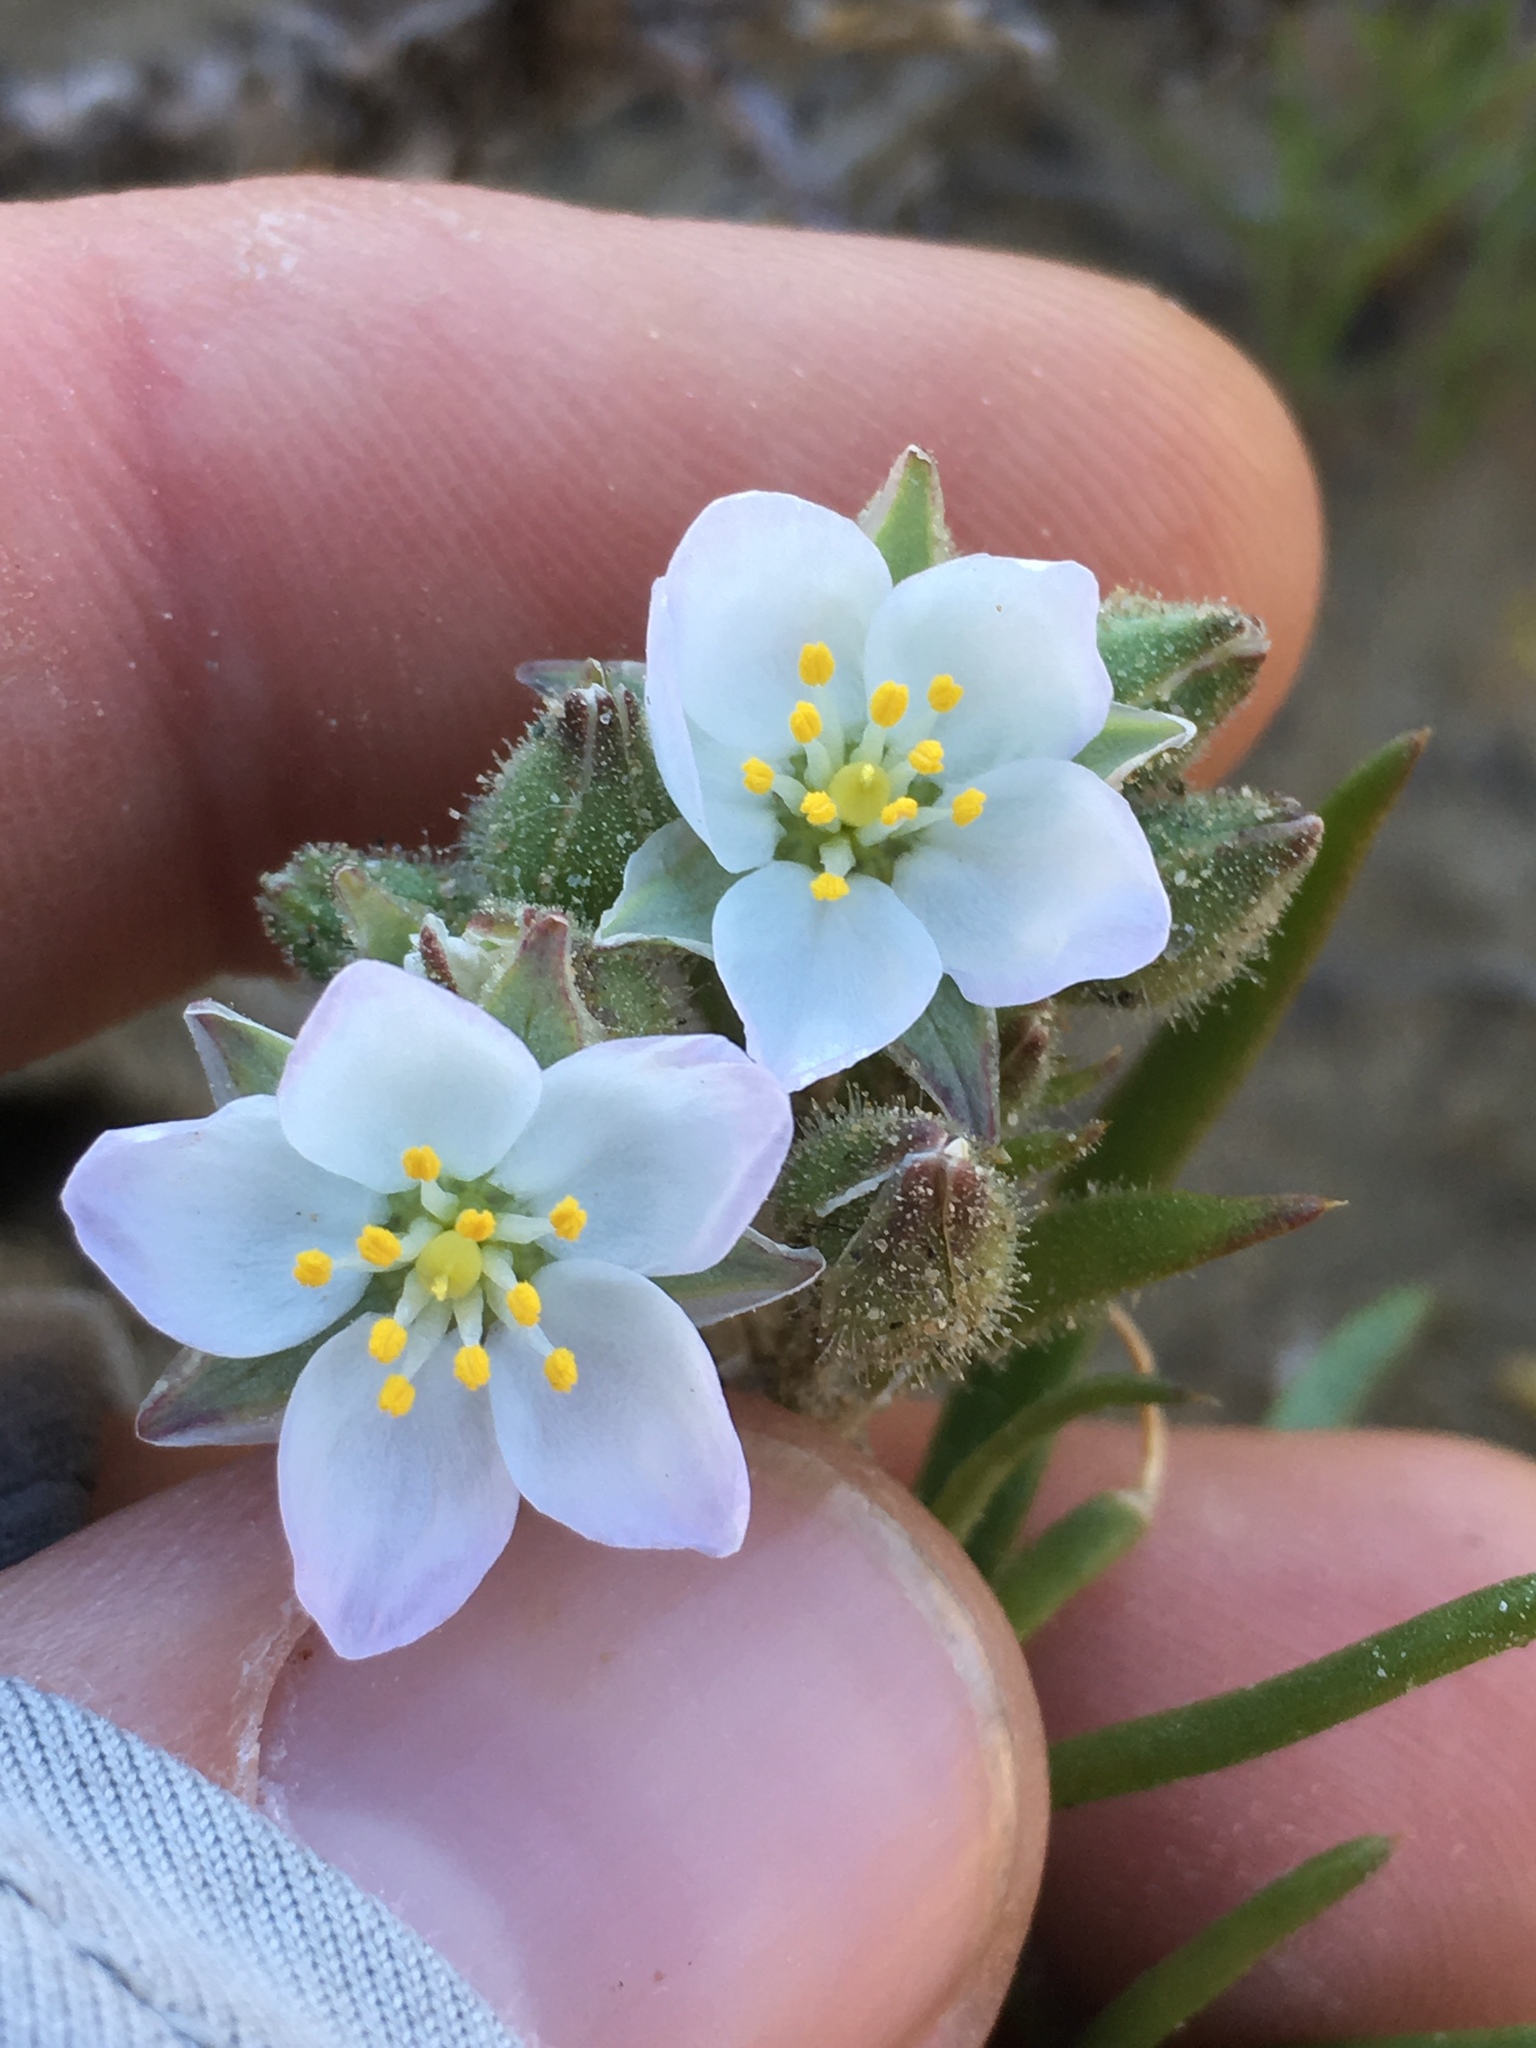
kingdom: Plantae
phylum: Tracheophyta
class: Magnoliopsida
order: Caryophyllales
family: Caryophyllaceae
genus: Spergularia
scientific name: Spergularia macrotheca
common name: Beach sand-spurrey
